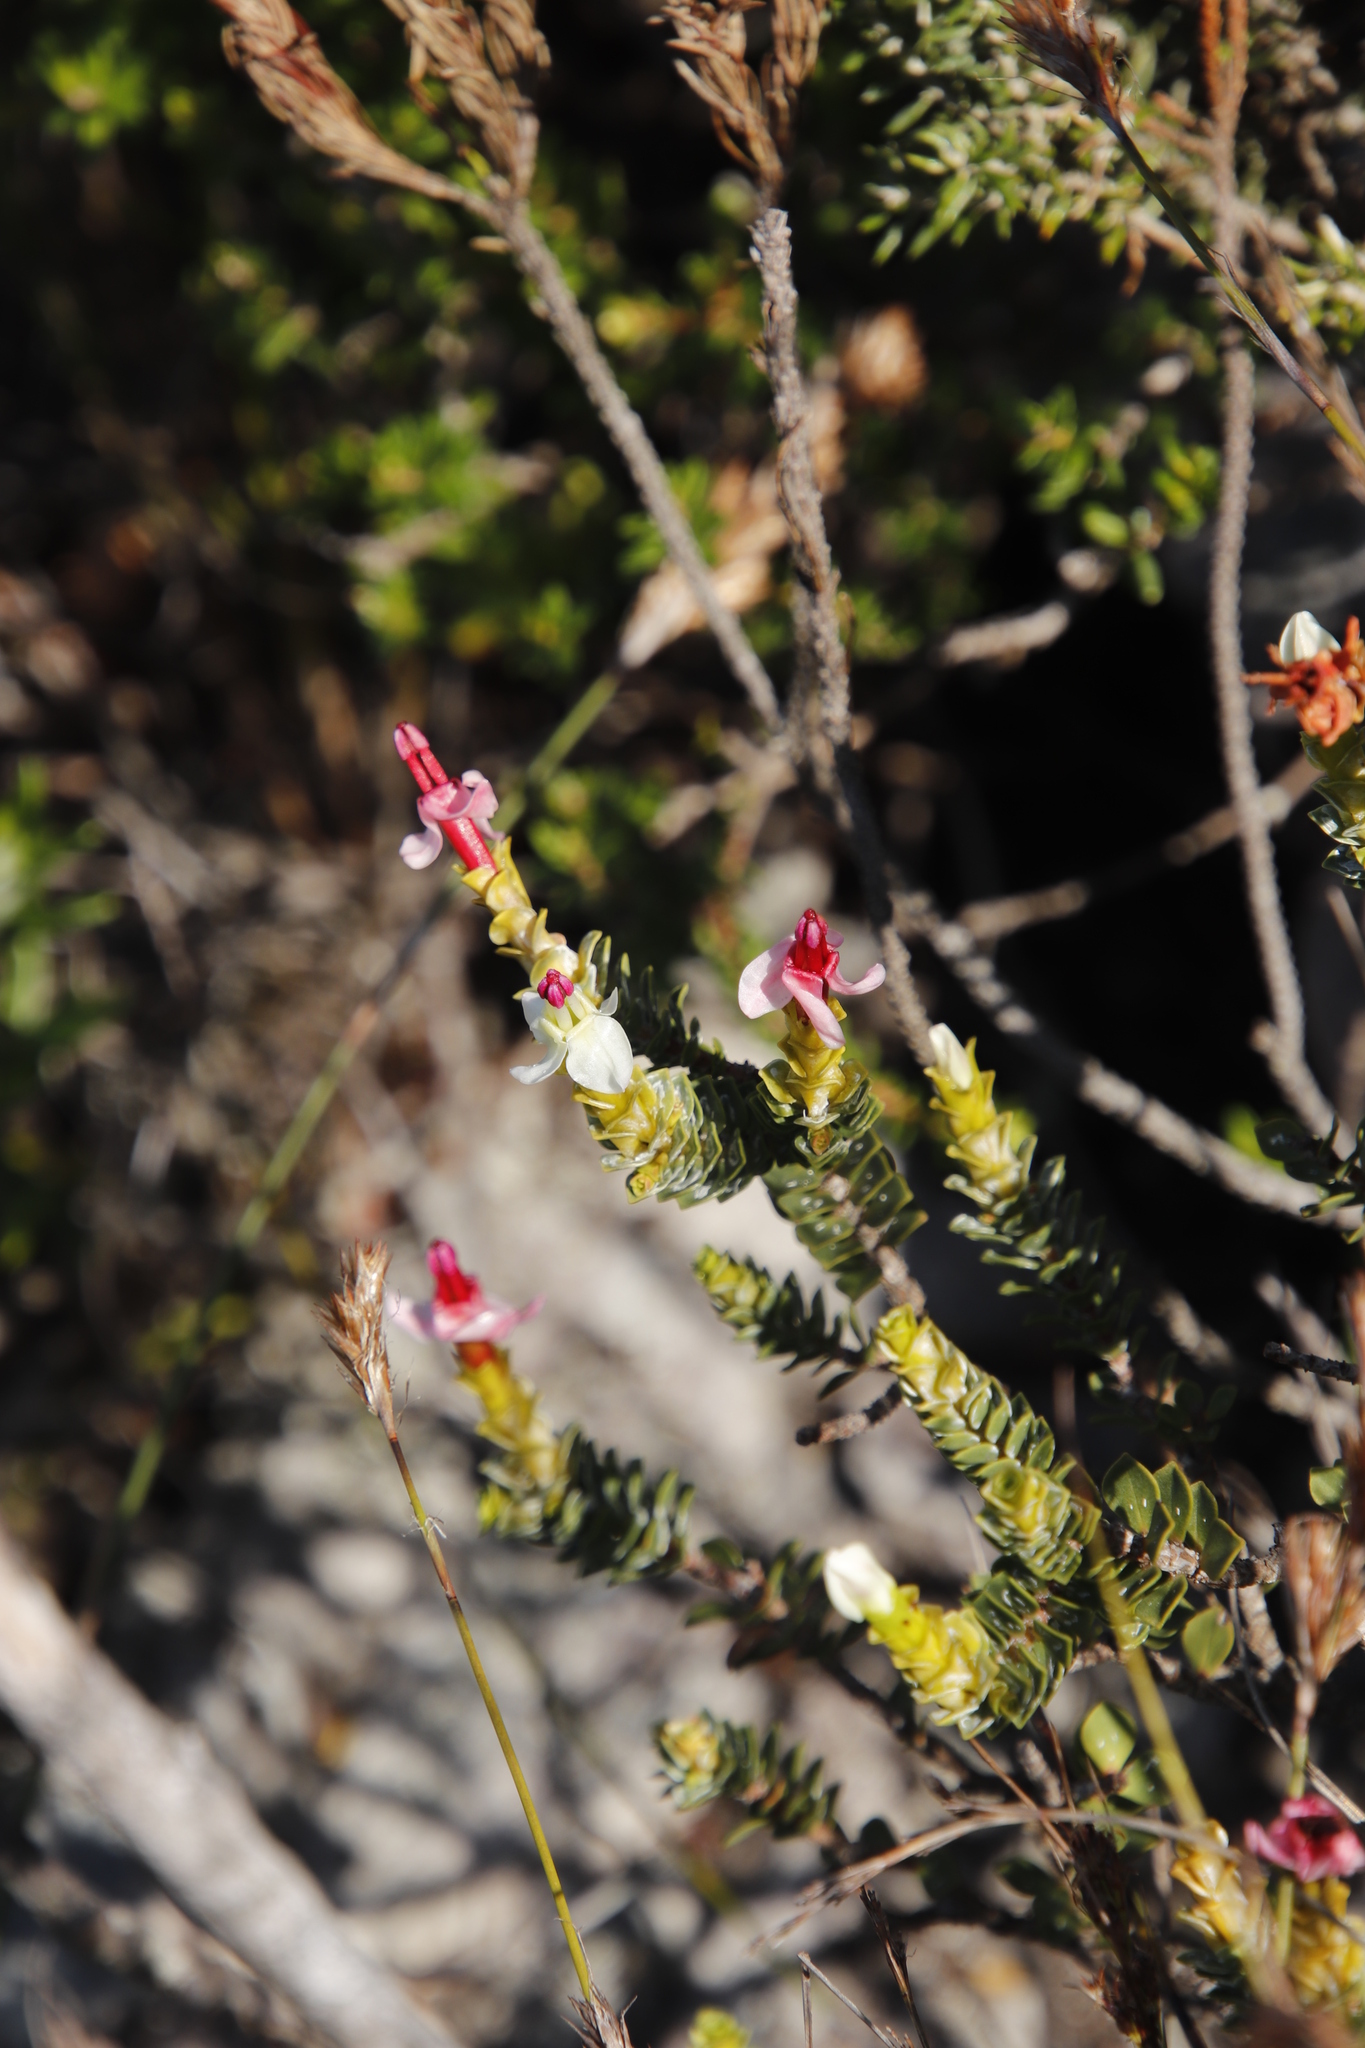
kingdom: Plantae
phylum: Tracheophyta
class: Magnoliopsida
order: Myrtales
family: Penaeaceae
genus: Saltera
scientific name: Saltera sarcocolla
